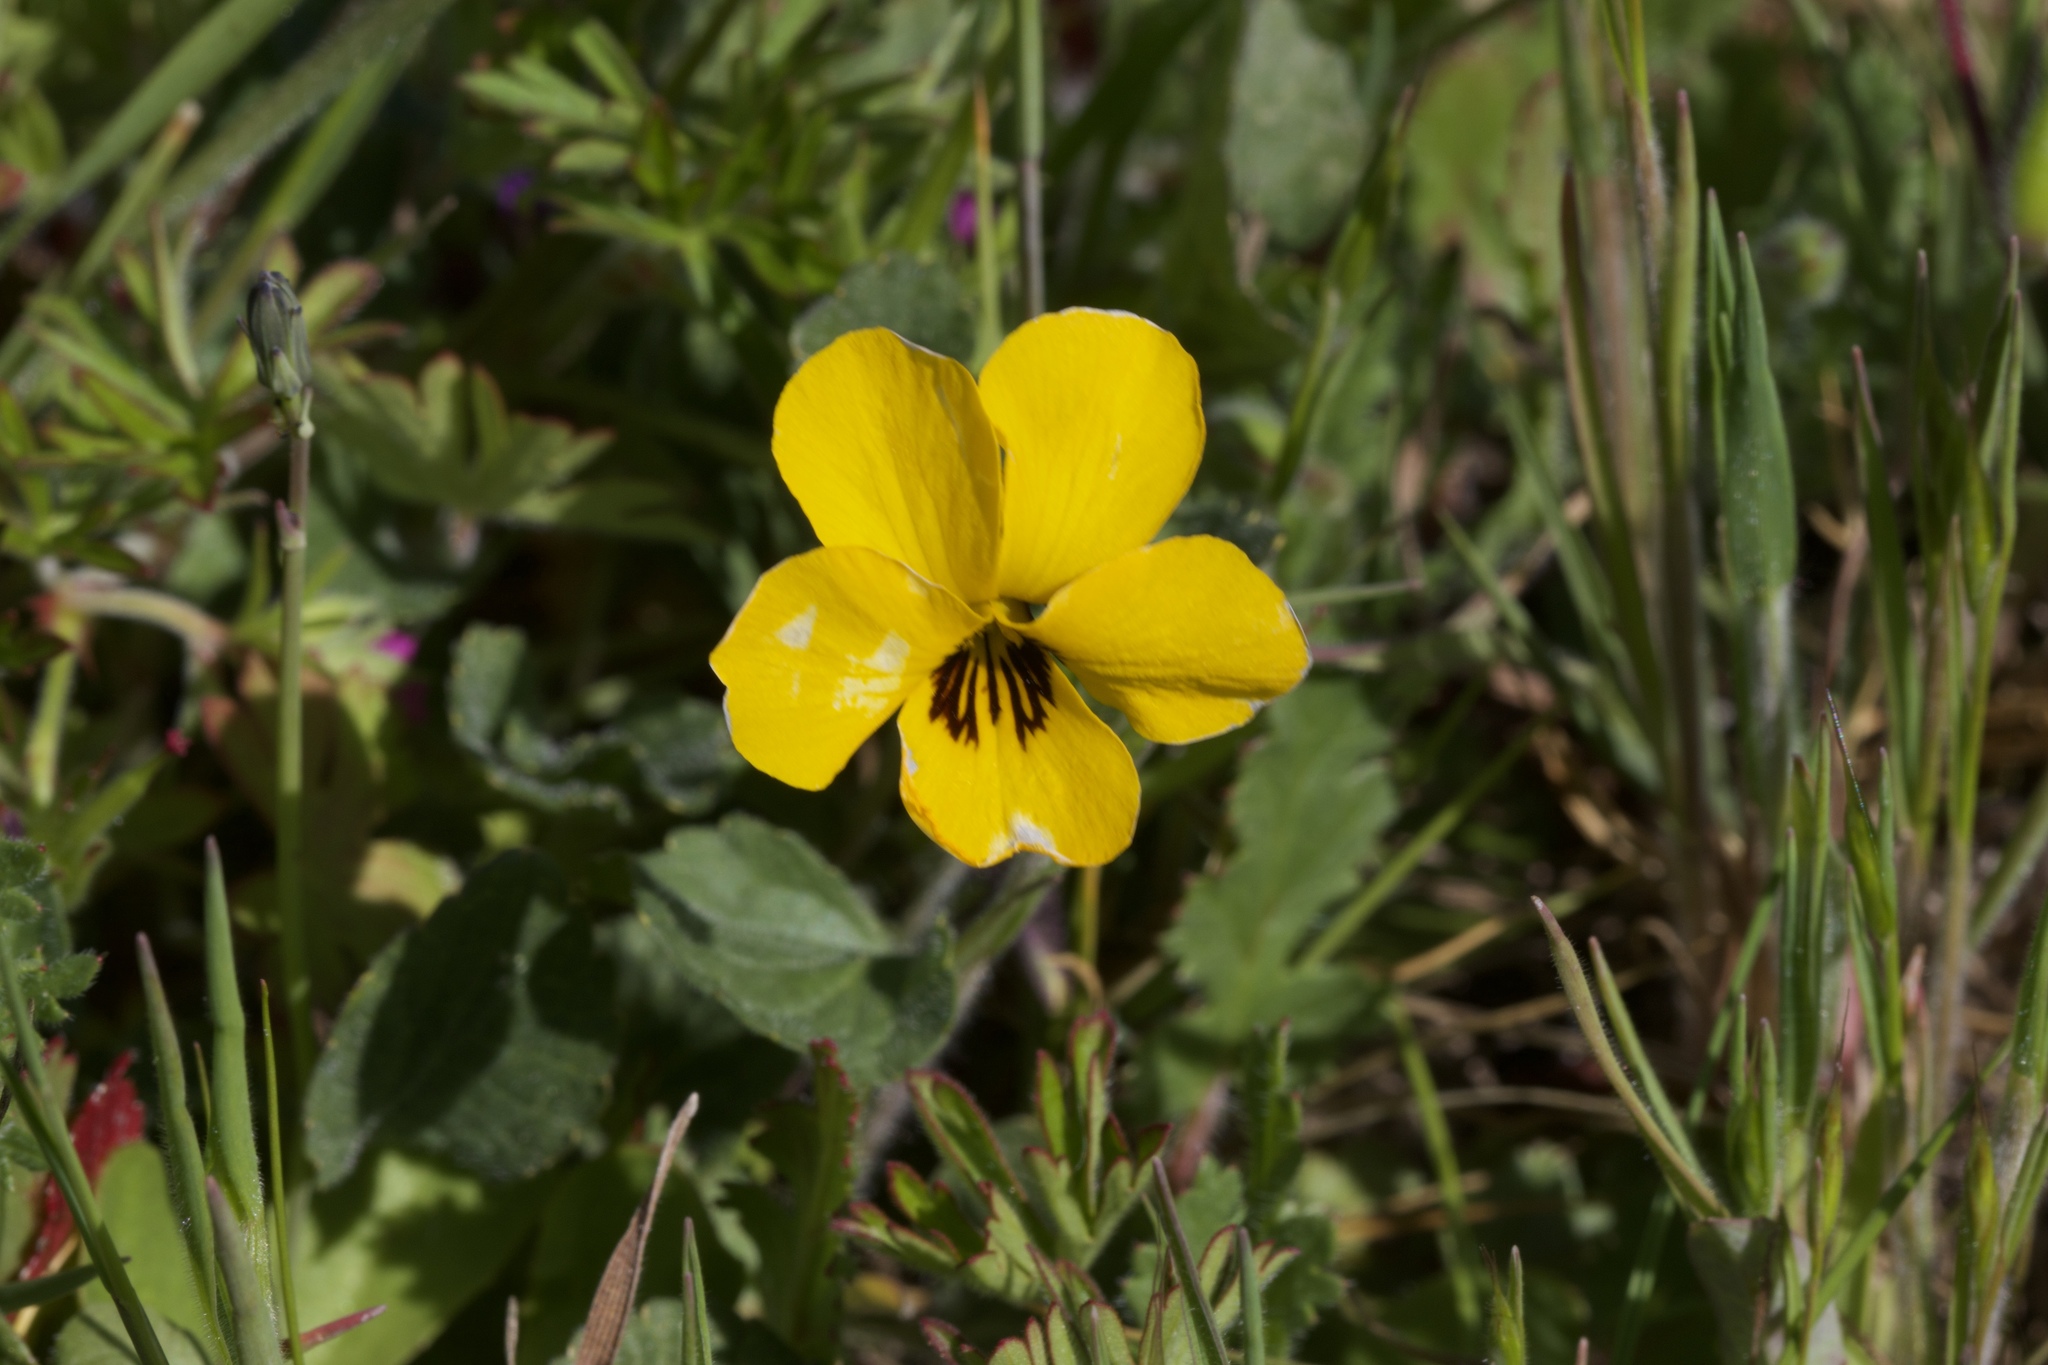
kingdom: Plantae
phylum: Tracheophyta
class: Magnoliopsida
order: Malpighiales
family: Violaceae
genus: Viola
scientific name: Viola pedunculata
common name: California golden violet
